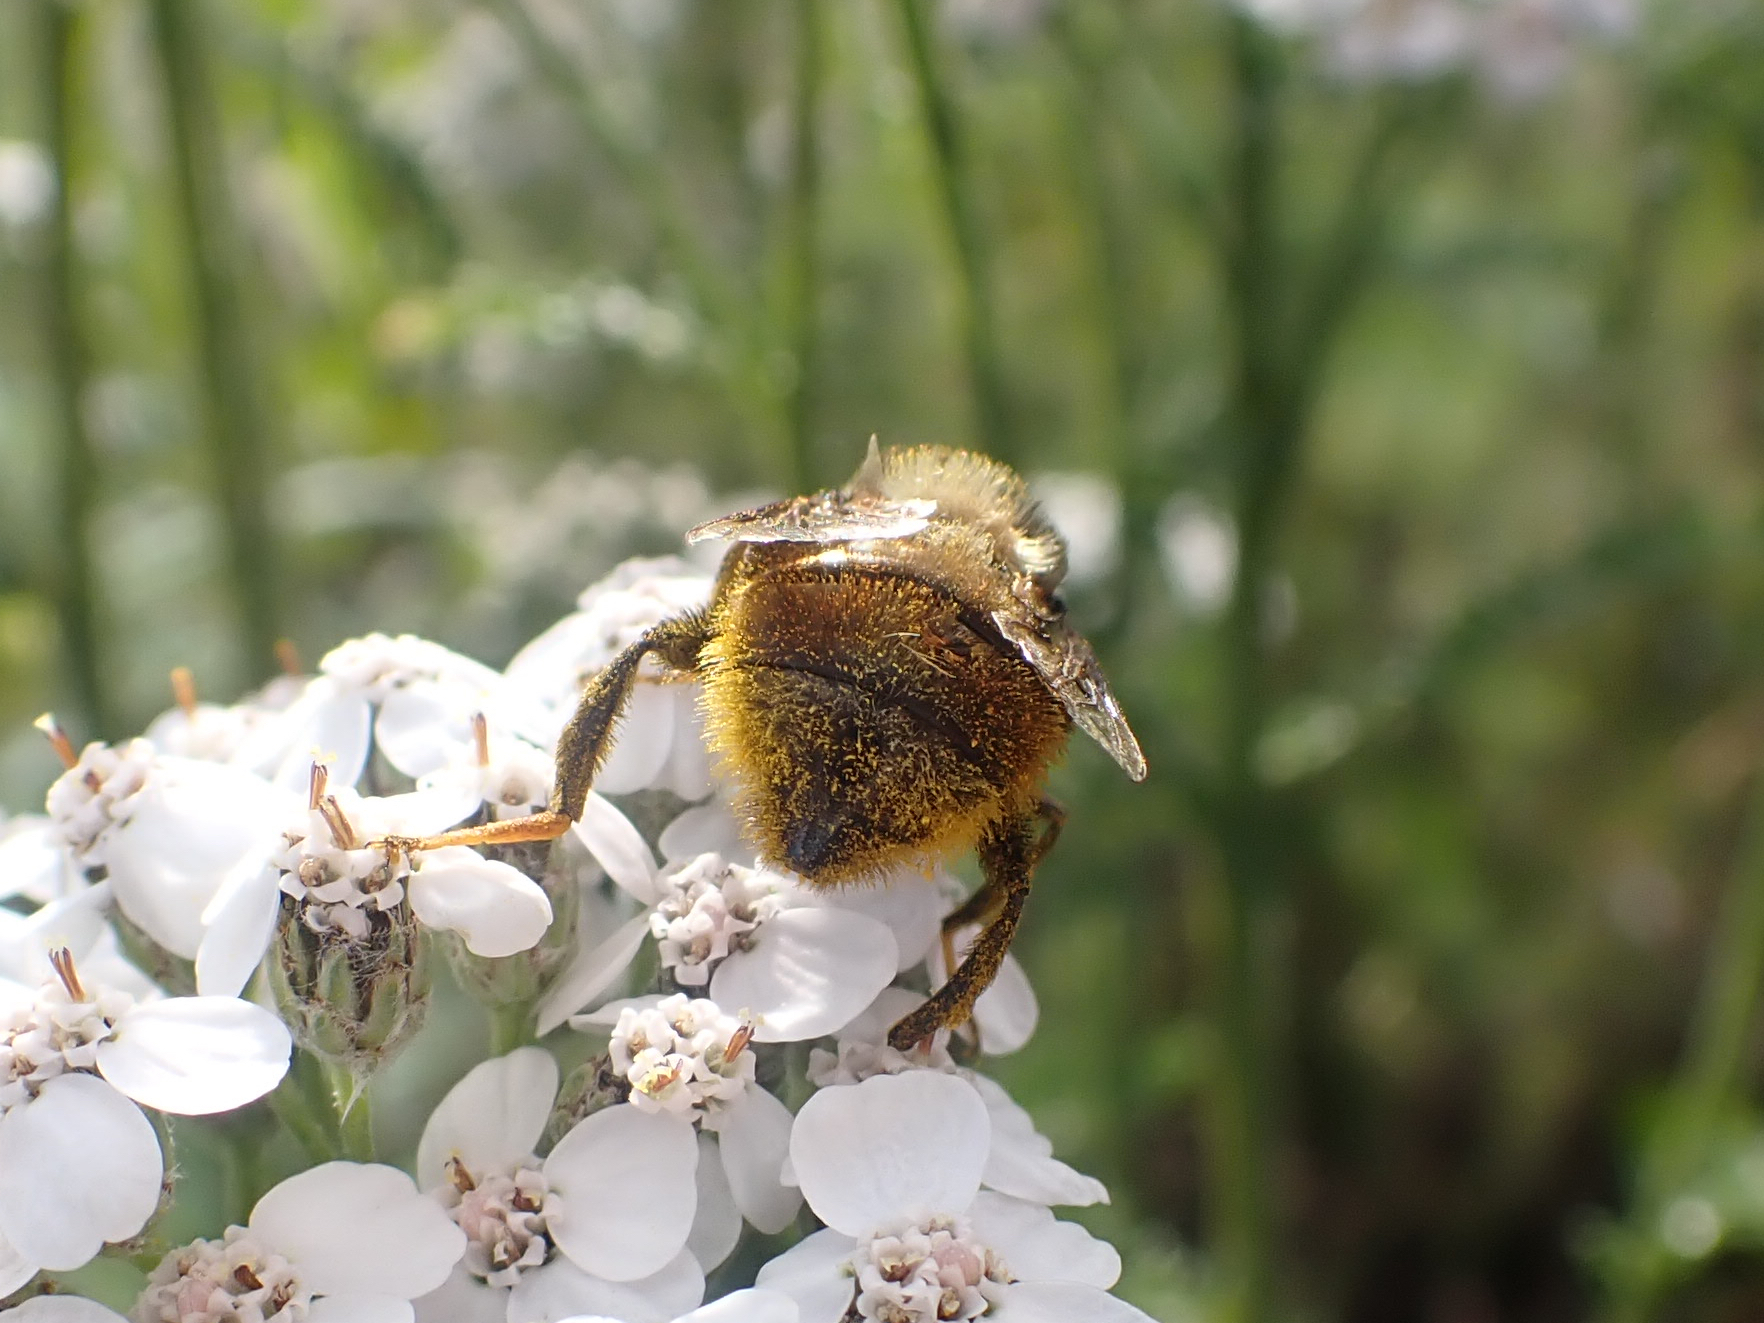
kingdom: Animalia
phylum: Arthropoda
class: Insecta
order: Diptera
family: Syrphidae
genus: Eristalis
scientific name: Eristalis flavipes
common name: Orange-legged drone fly
